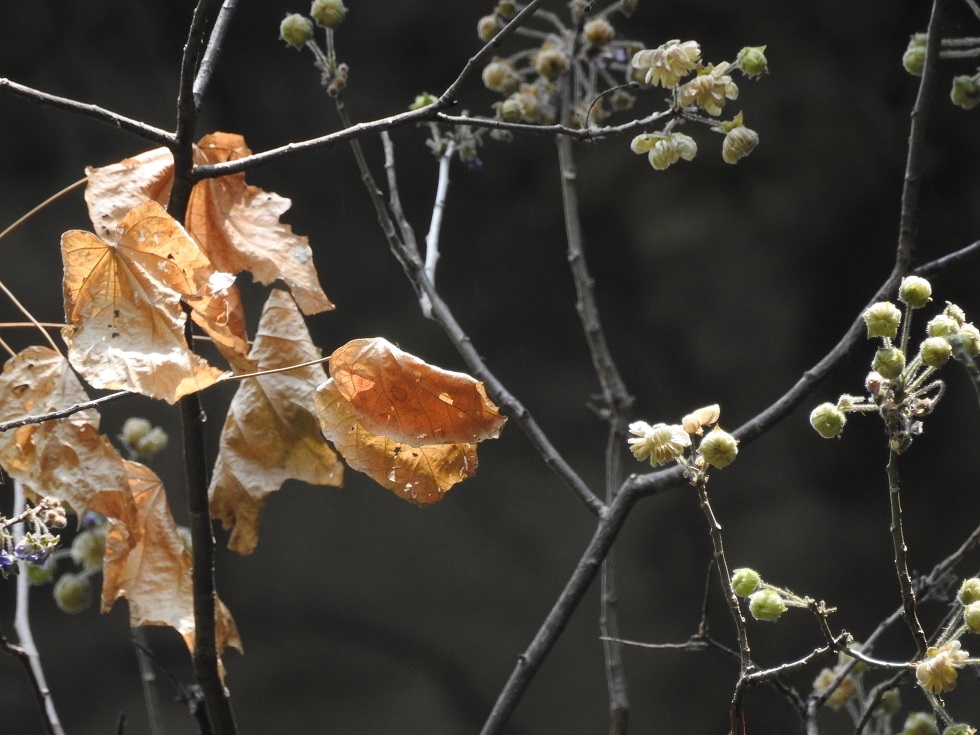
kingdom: Plantae
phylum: Tracheophyta
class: Magnoliopsida
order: Malvales
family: Malvaceae
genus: Robinsonella
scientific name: Robinsonella brevituba
